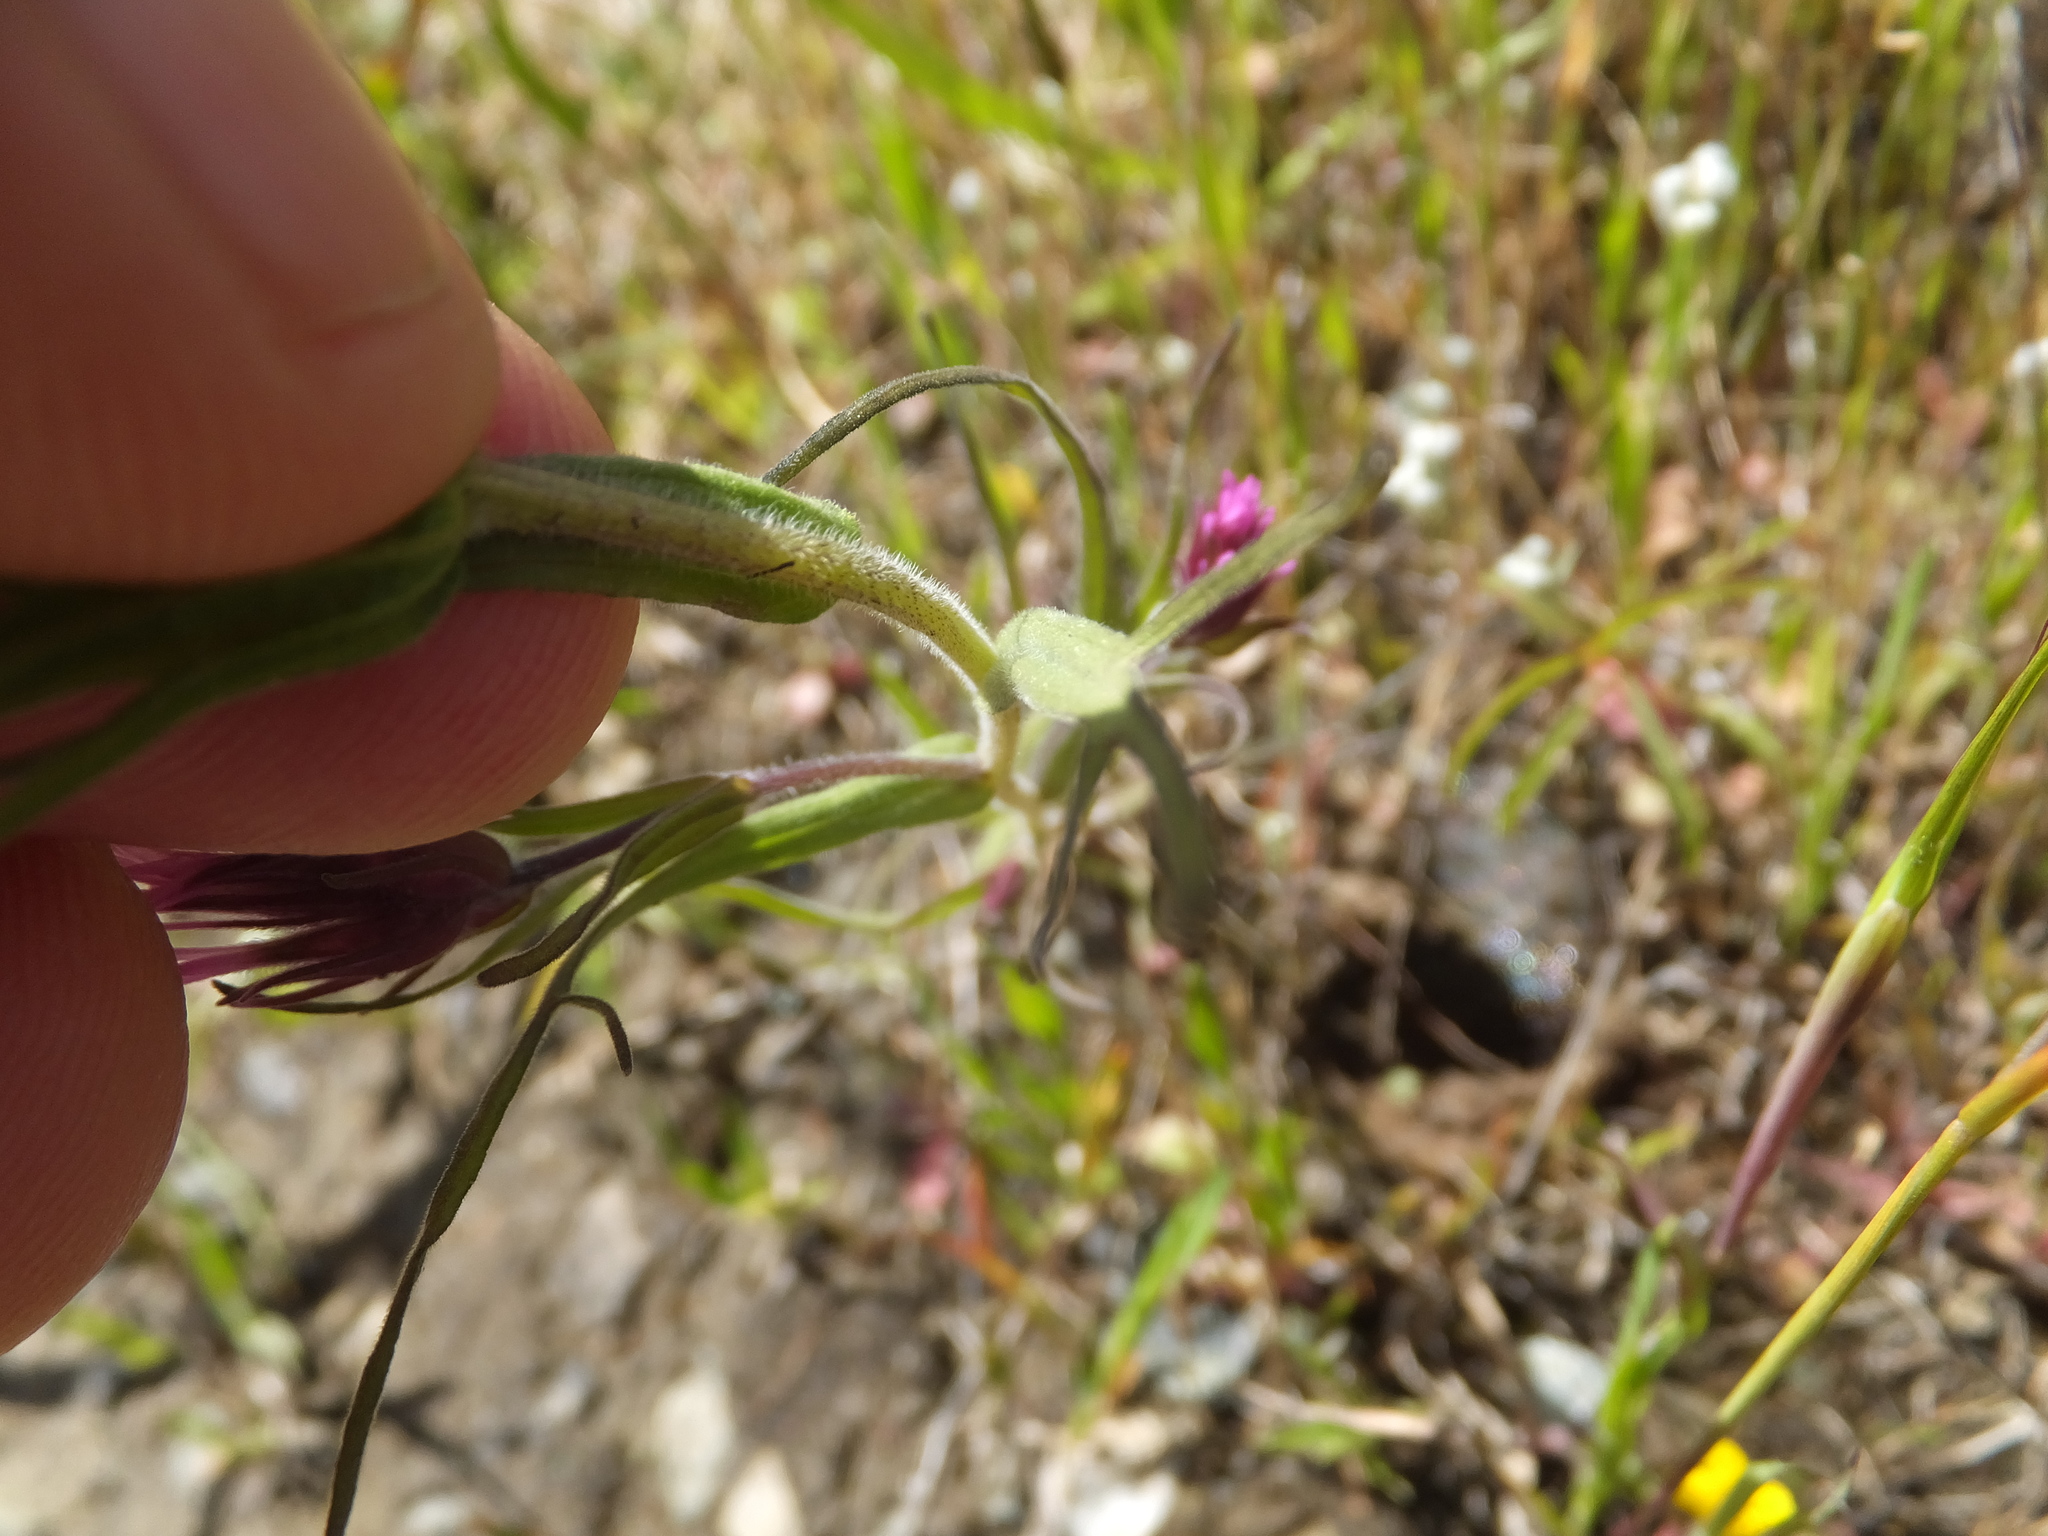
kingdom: Plantae
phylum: Tracheophyta
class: Magnoliopsida
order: Lamiales
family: Orobanchaceae
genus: Castilleja
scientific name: Castilleja densiflora
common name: Dense-flower indian paintbrush
